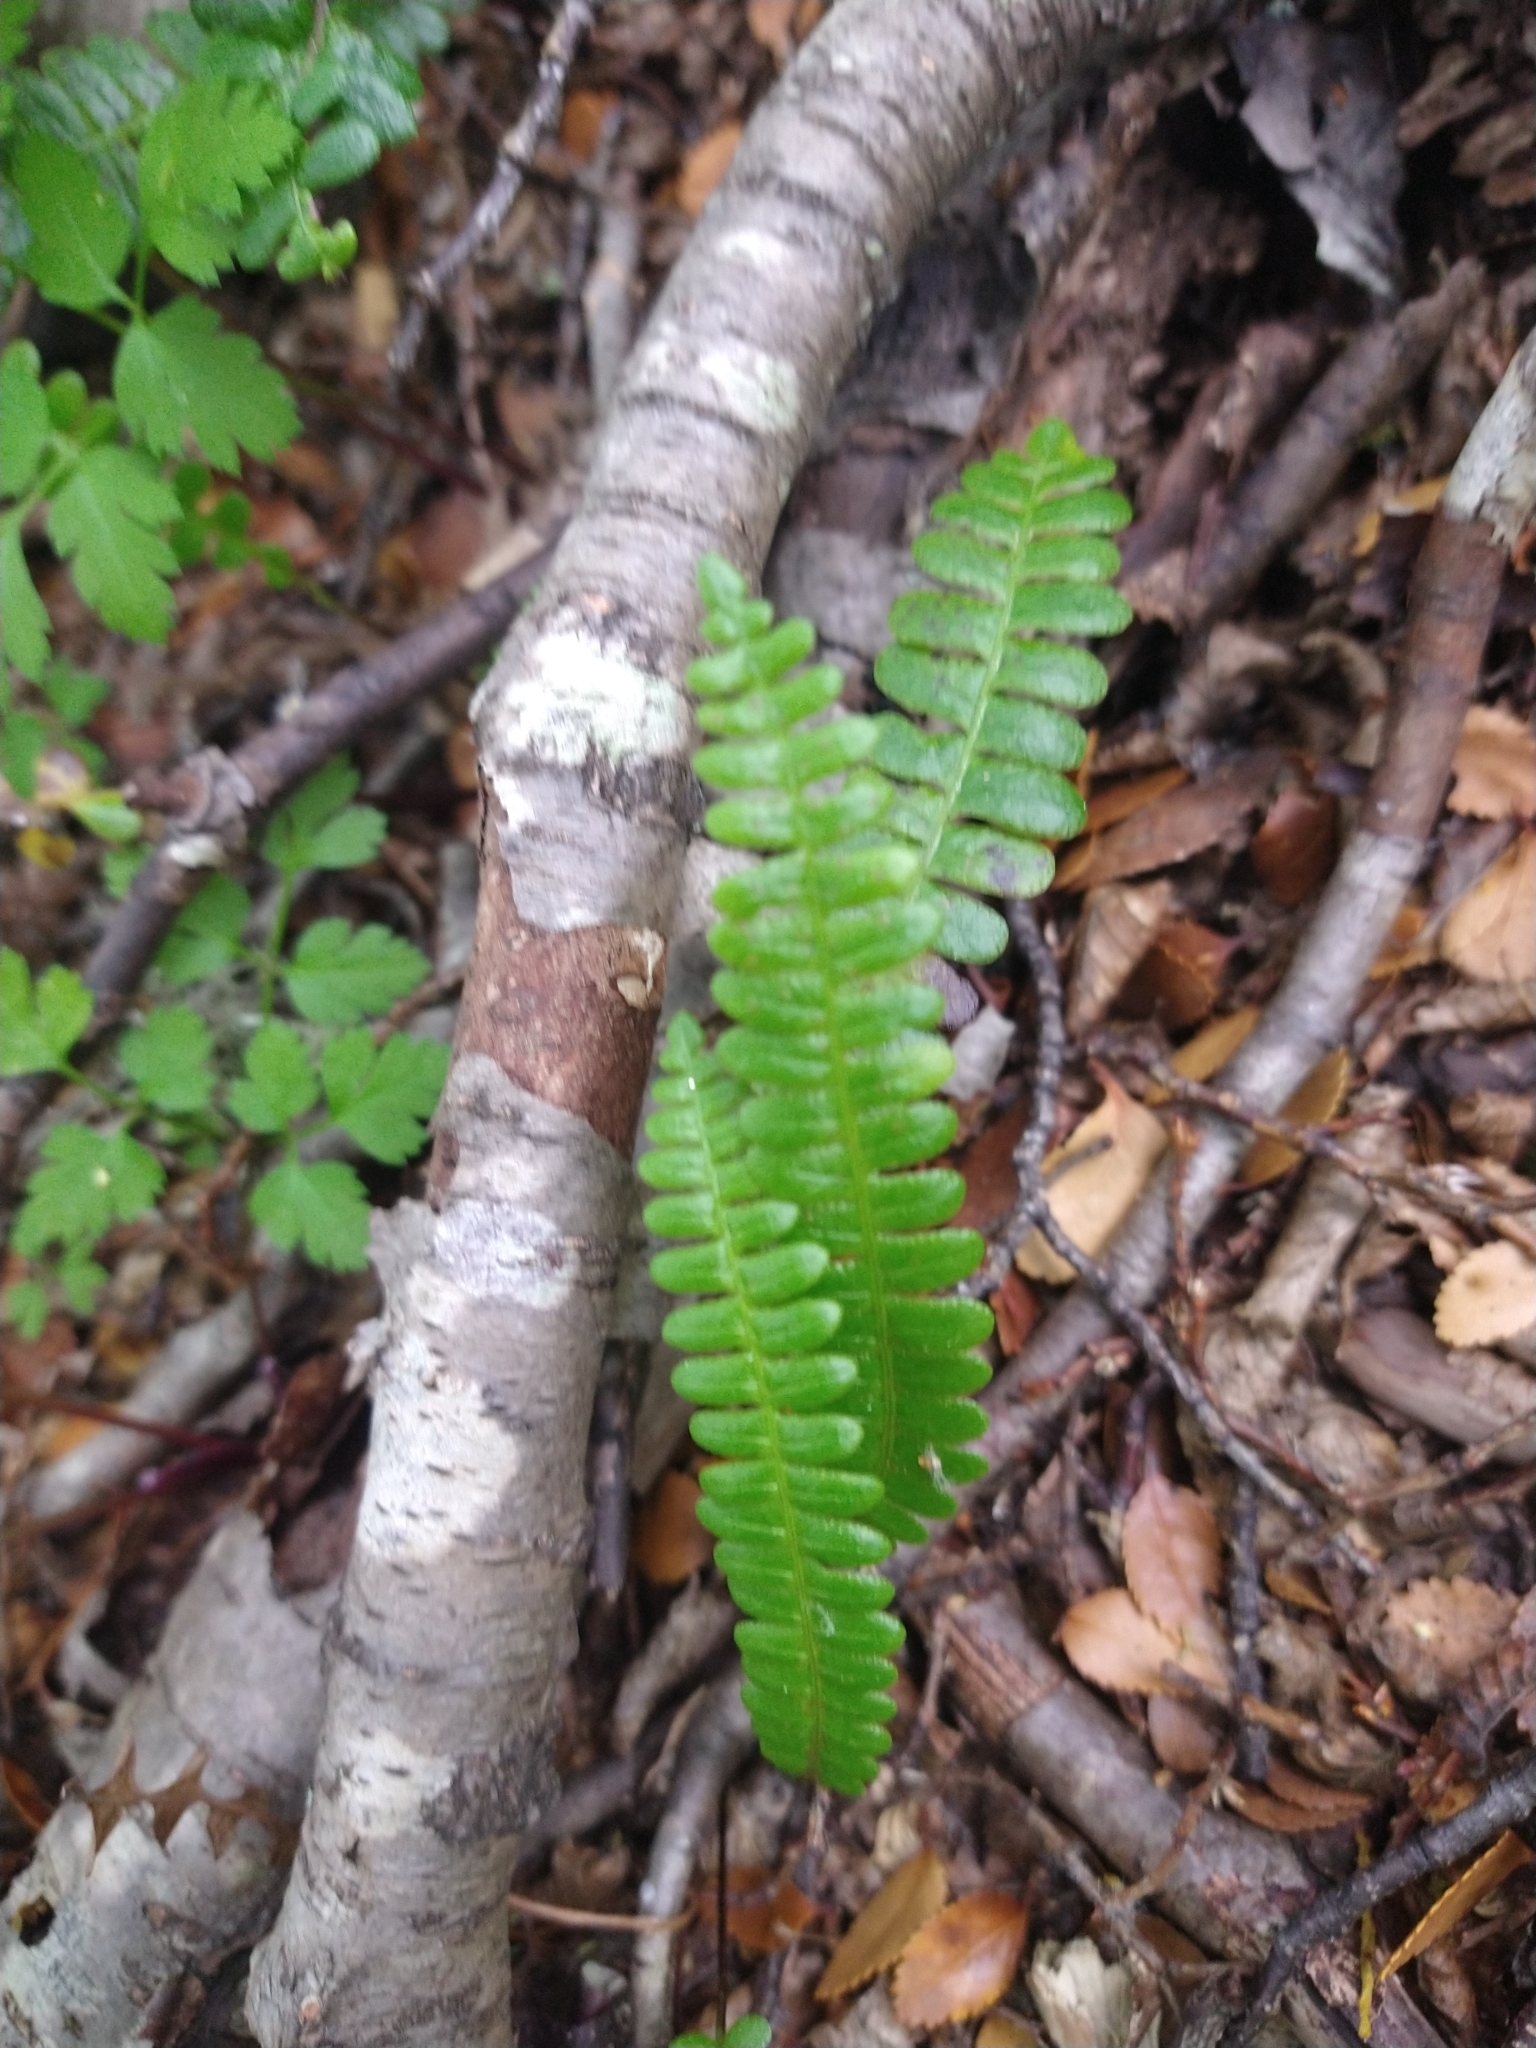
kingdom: Plantae
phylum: Tracheophyta
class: Polypodiopsida
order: Polypodiales
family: Blechnaceae
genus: Austroblechnum
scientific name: Austroblechnum penna-marina
